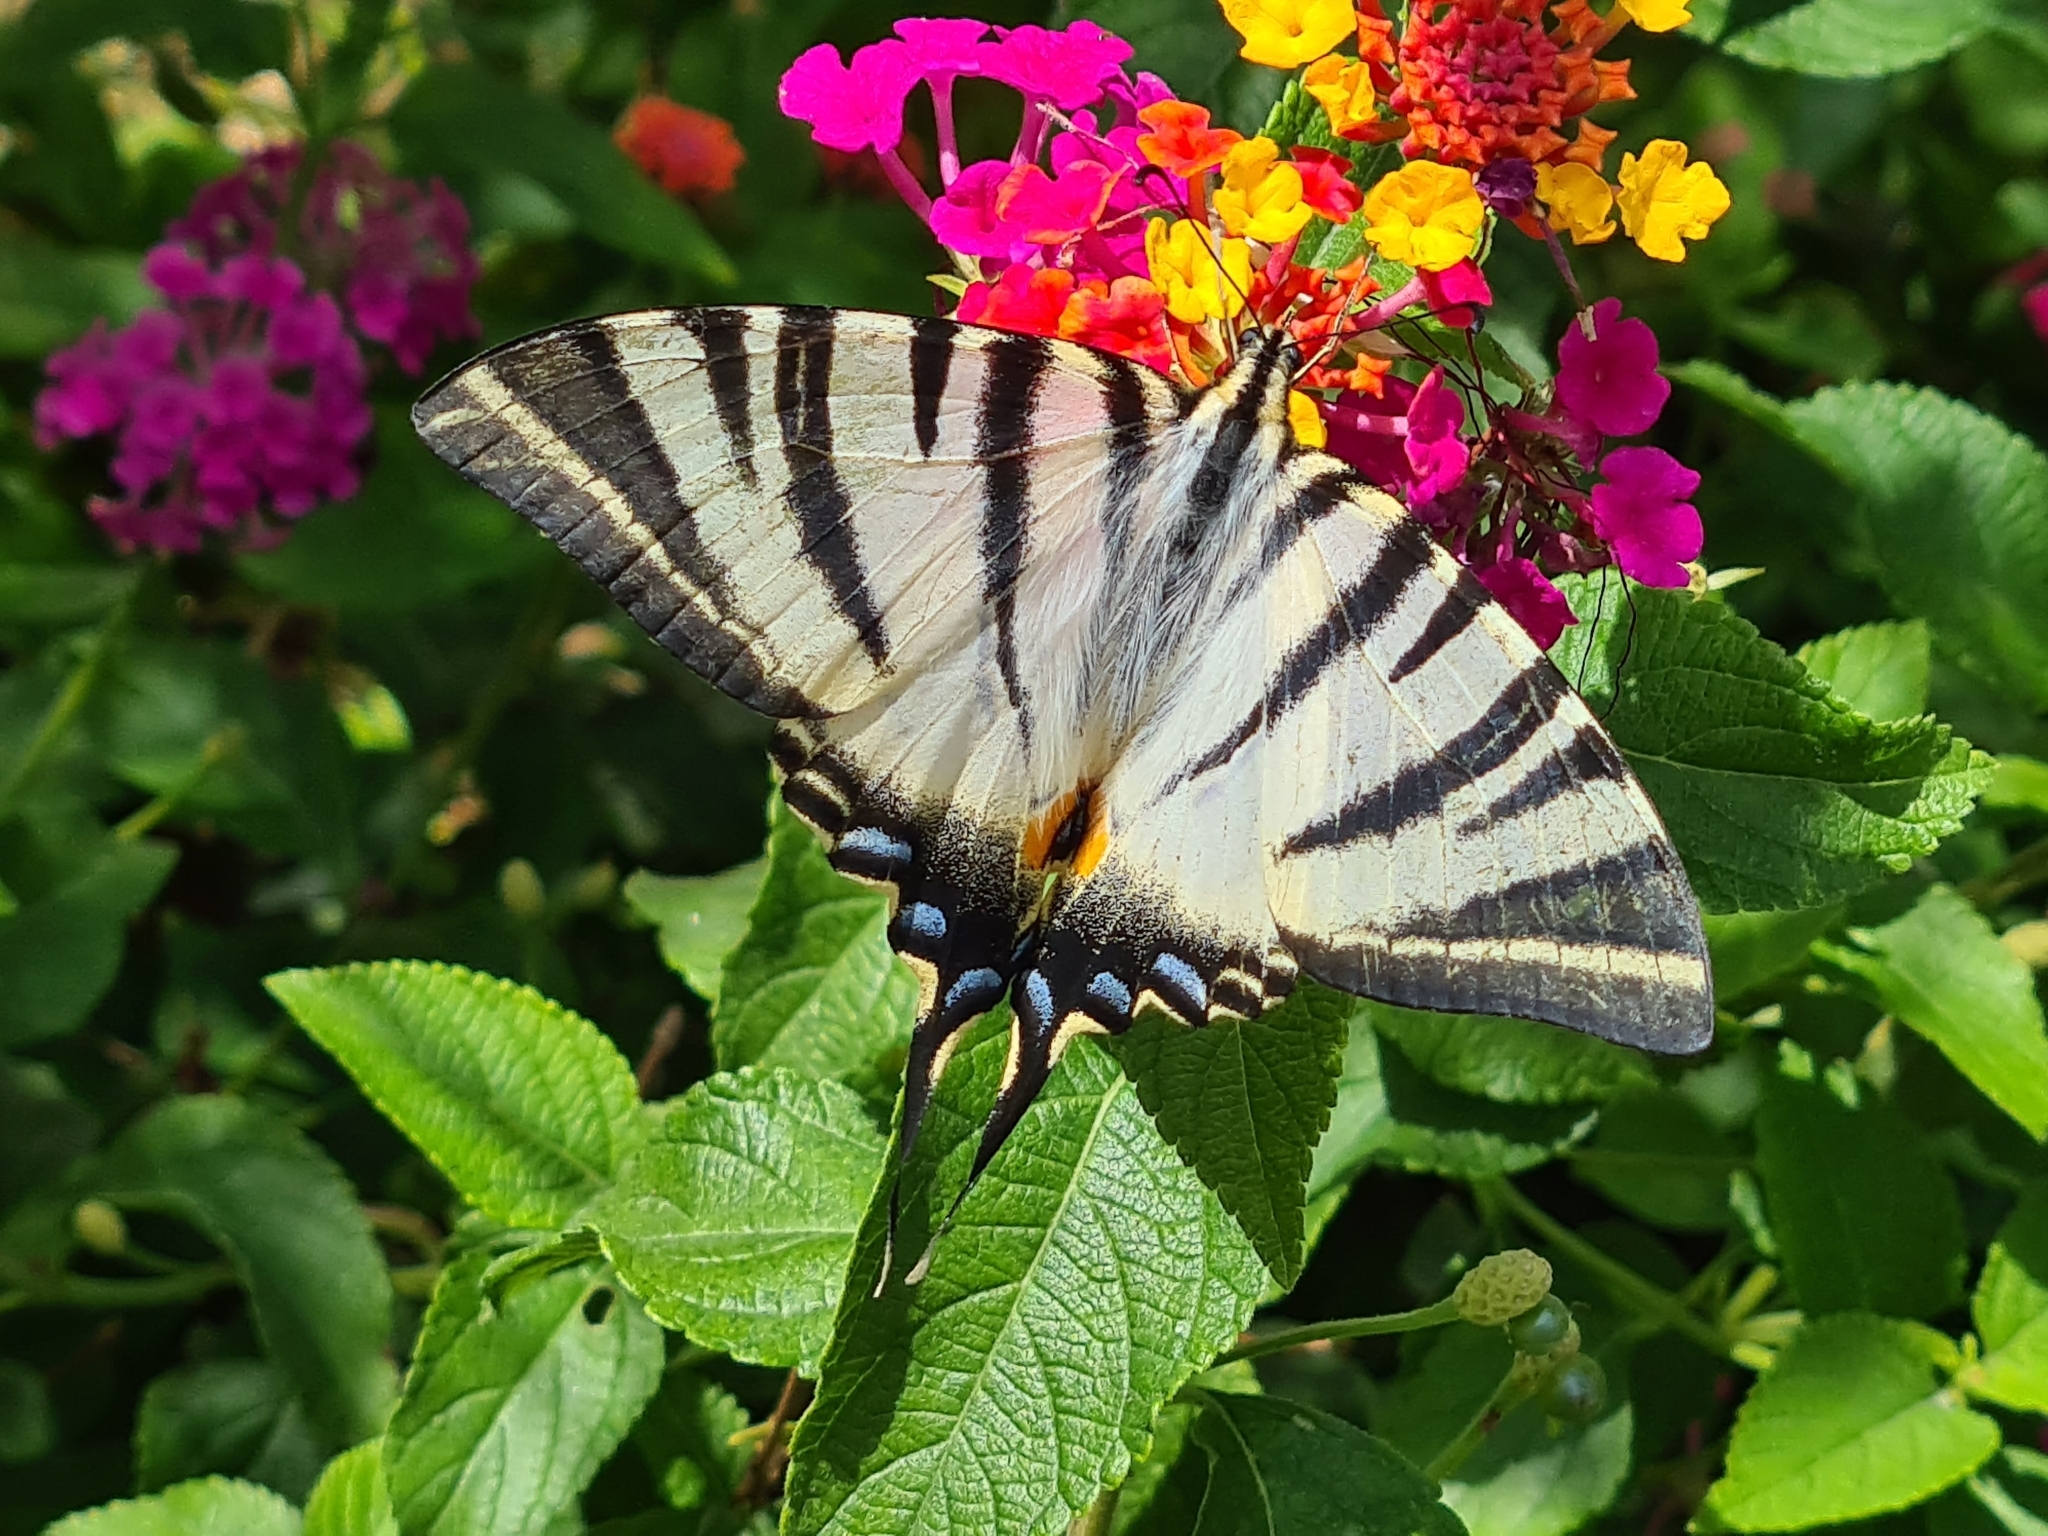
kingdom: Animalia
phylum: Arthropoda
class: Insecta
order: Lepidoptera
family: Papilionidae
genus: Iphiclides
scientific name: Iphiclides podalirius
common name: Scarce swallowtail
